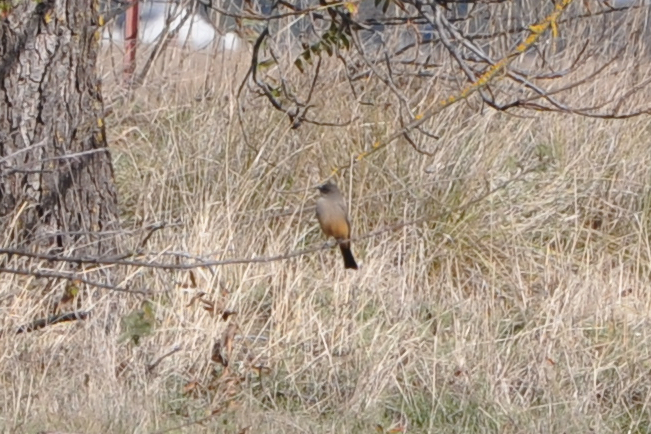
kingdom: Animalia
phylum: Chordata
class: Aves
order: Passeriformes
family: Tyrannidae
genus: Sayornis
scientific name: Sayornis saya
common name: Say's phoebe
